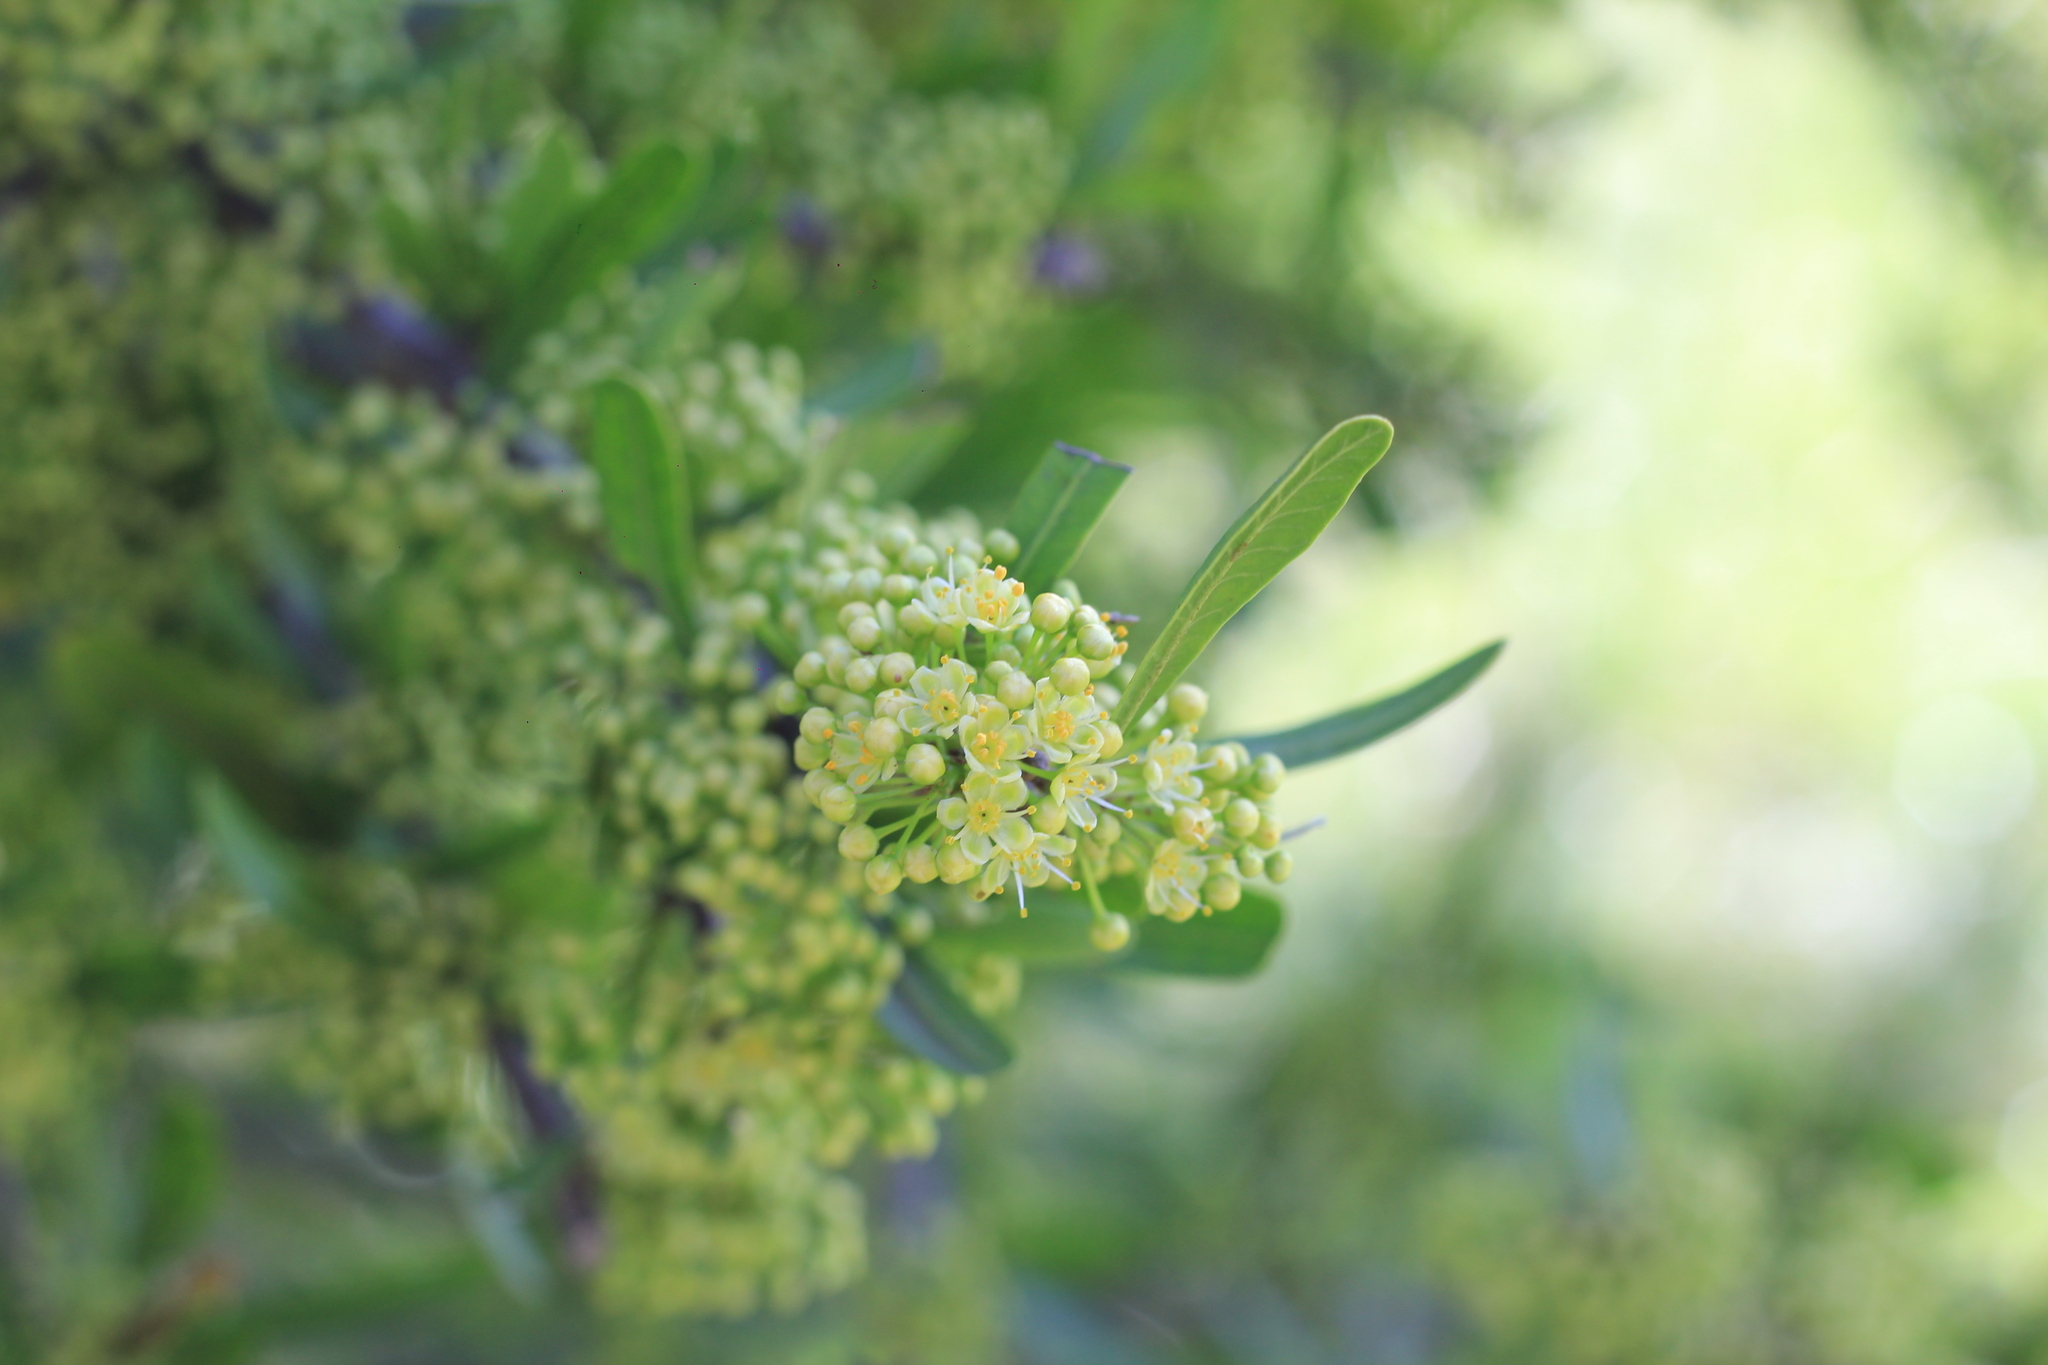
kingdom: Plantae
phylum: Tracheophyta
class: Magnoliopsida
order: Sapindales
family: Anacardiaceae
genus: Schinus
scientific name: Schinus longifolia
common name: Longleaf peppertree
